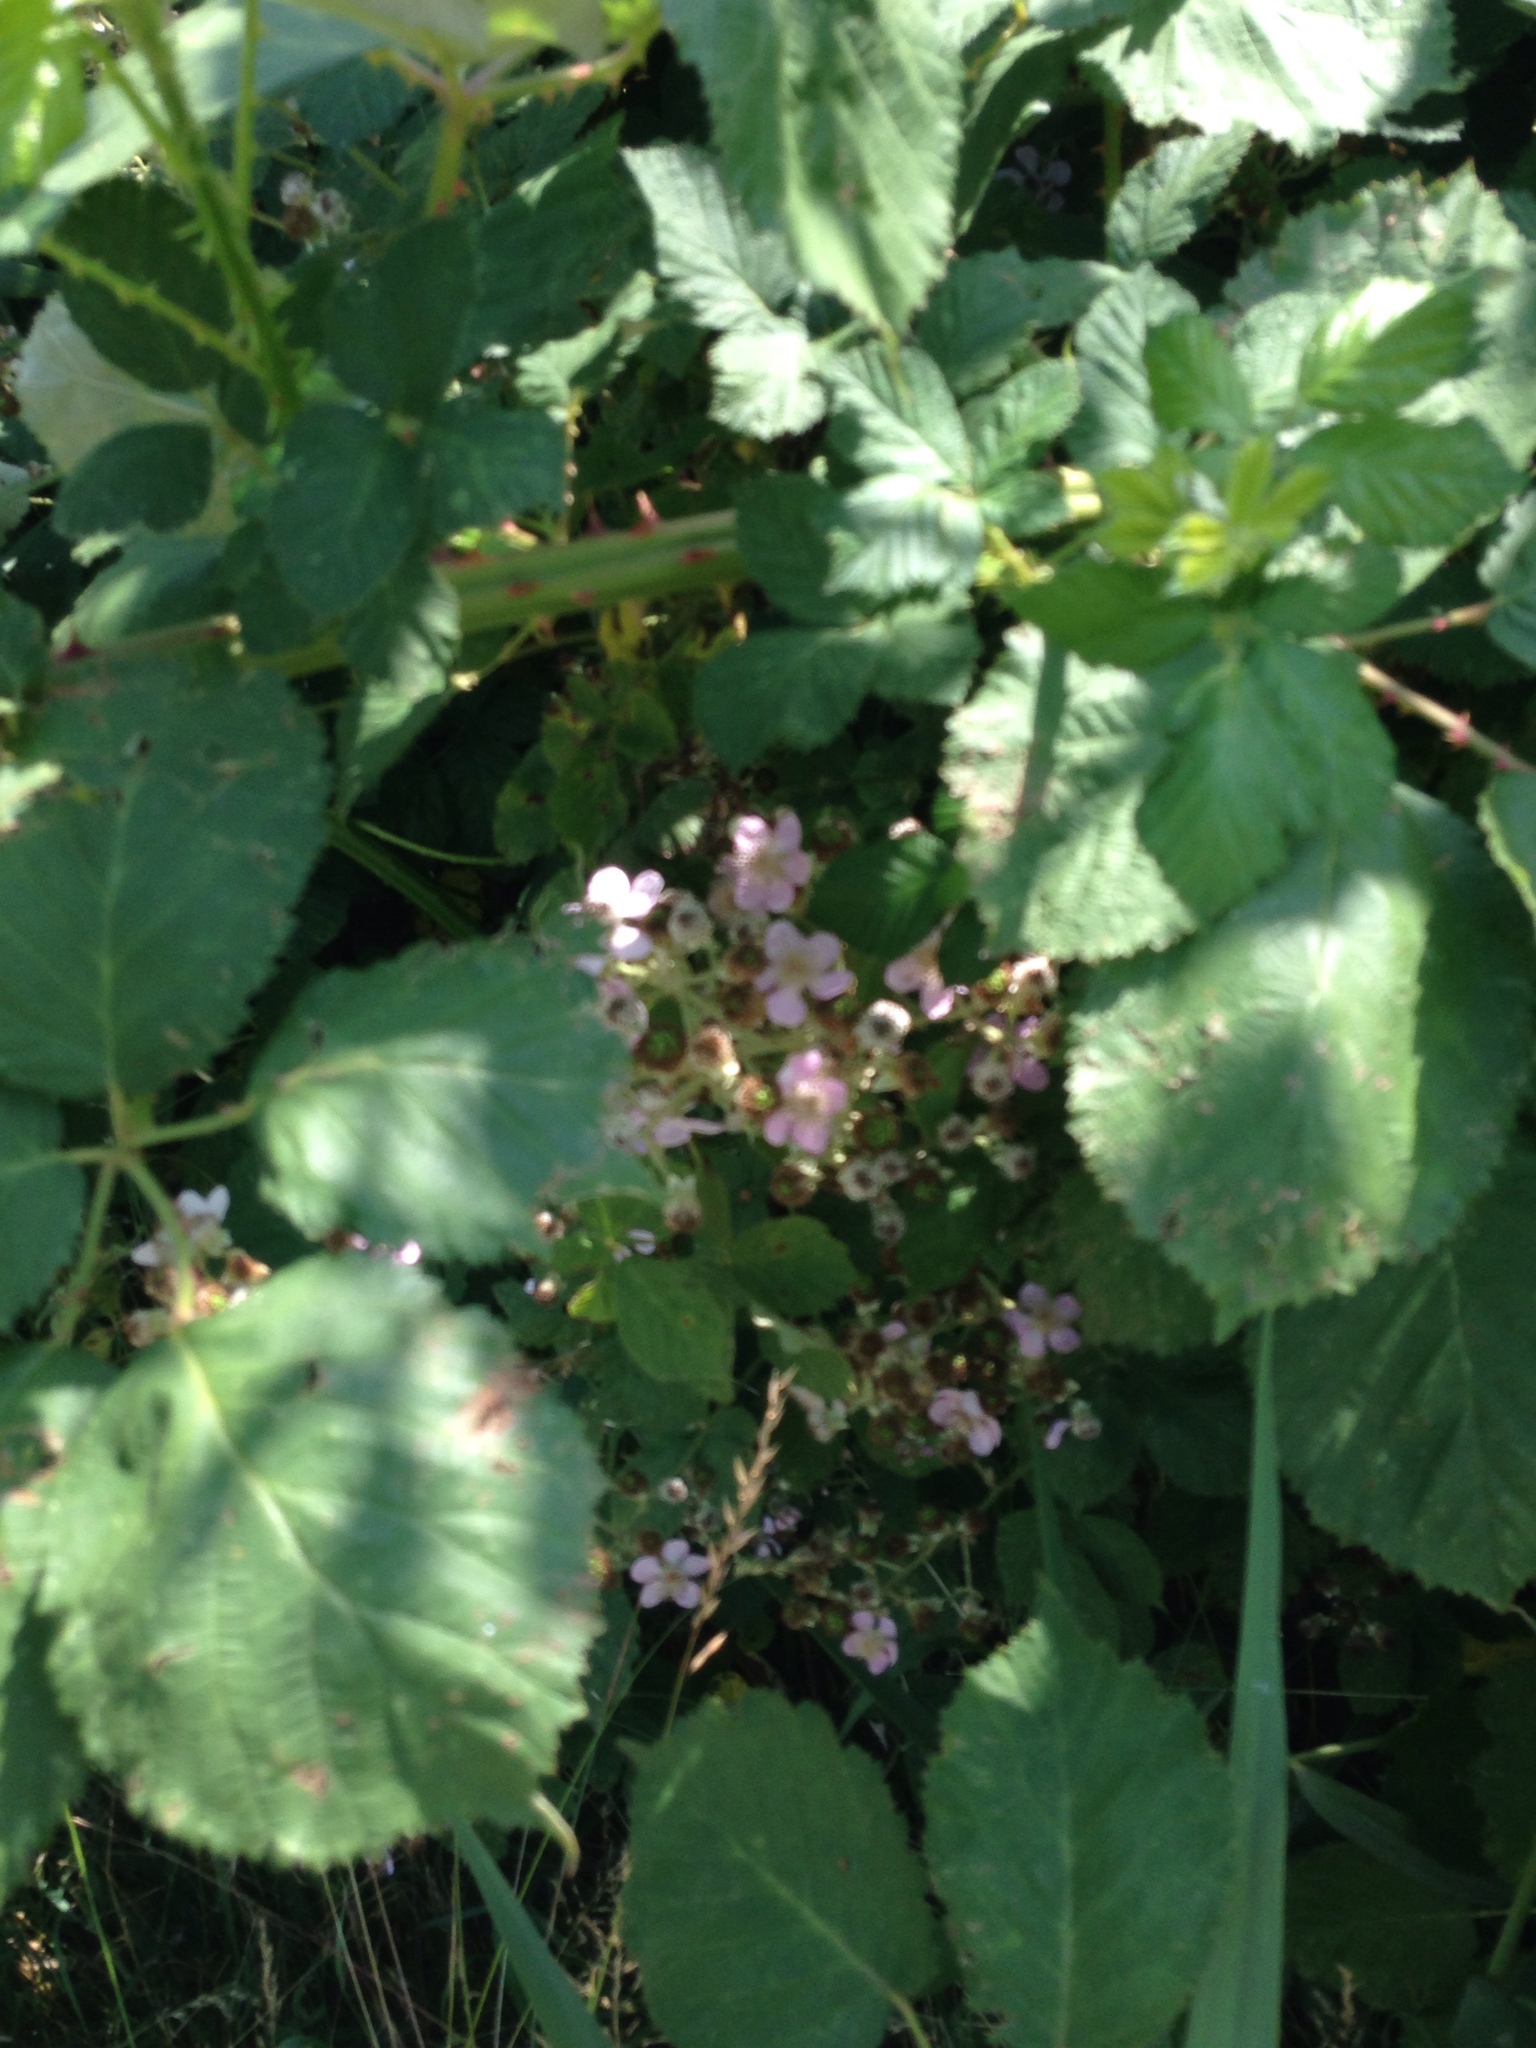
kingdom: Plantae
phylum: Tracheophyta
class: Magnoliopsida
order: Rosales
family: Rosaceae
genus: Rubus
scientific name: Rubus armeniacus
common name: Himalayan blackberry
